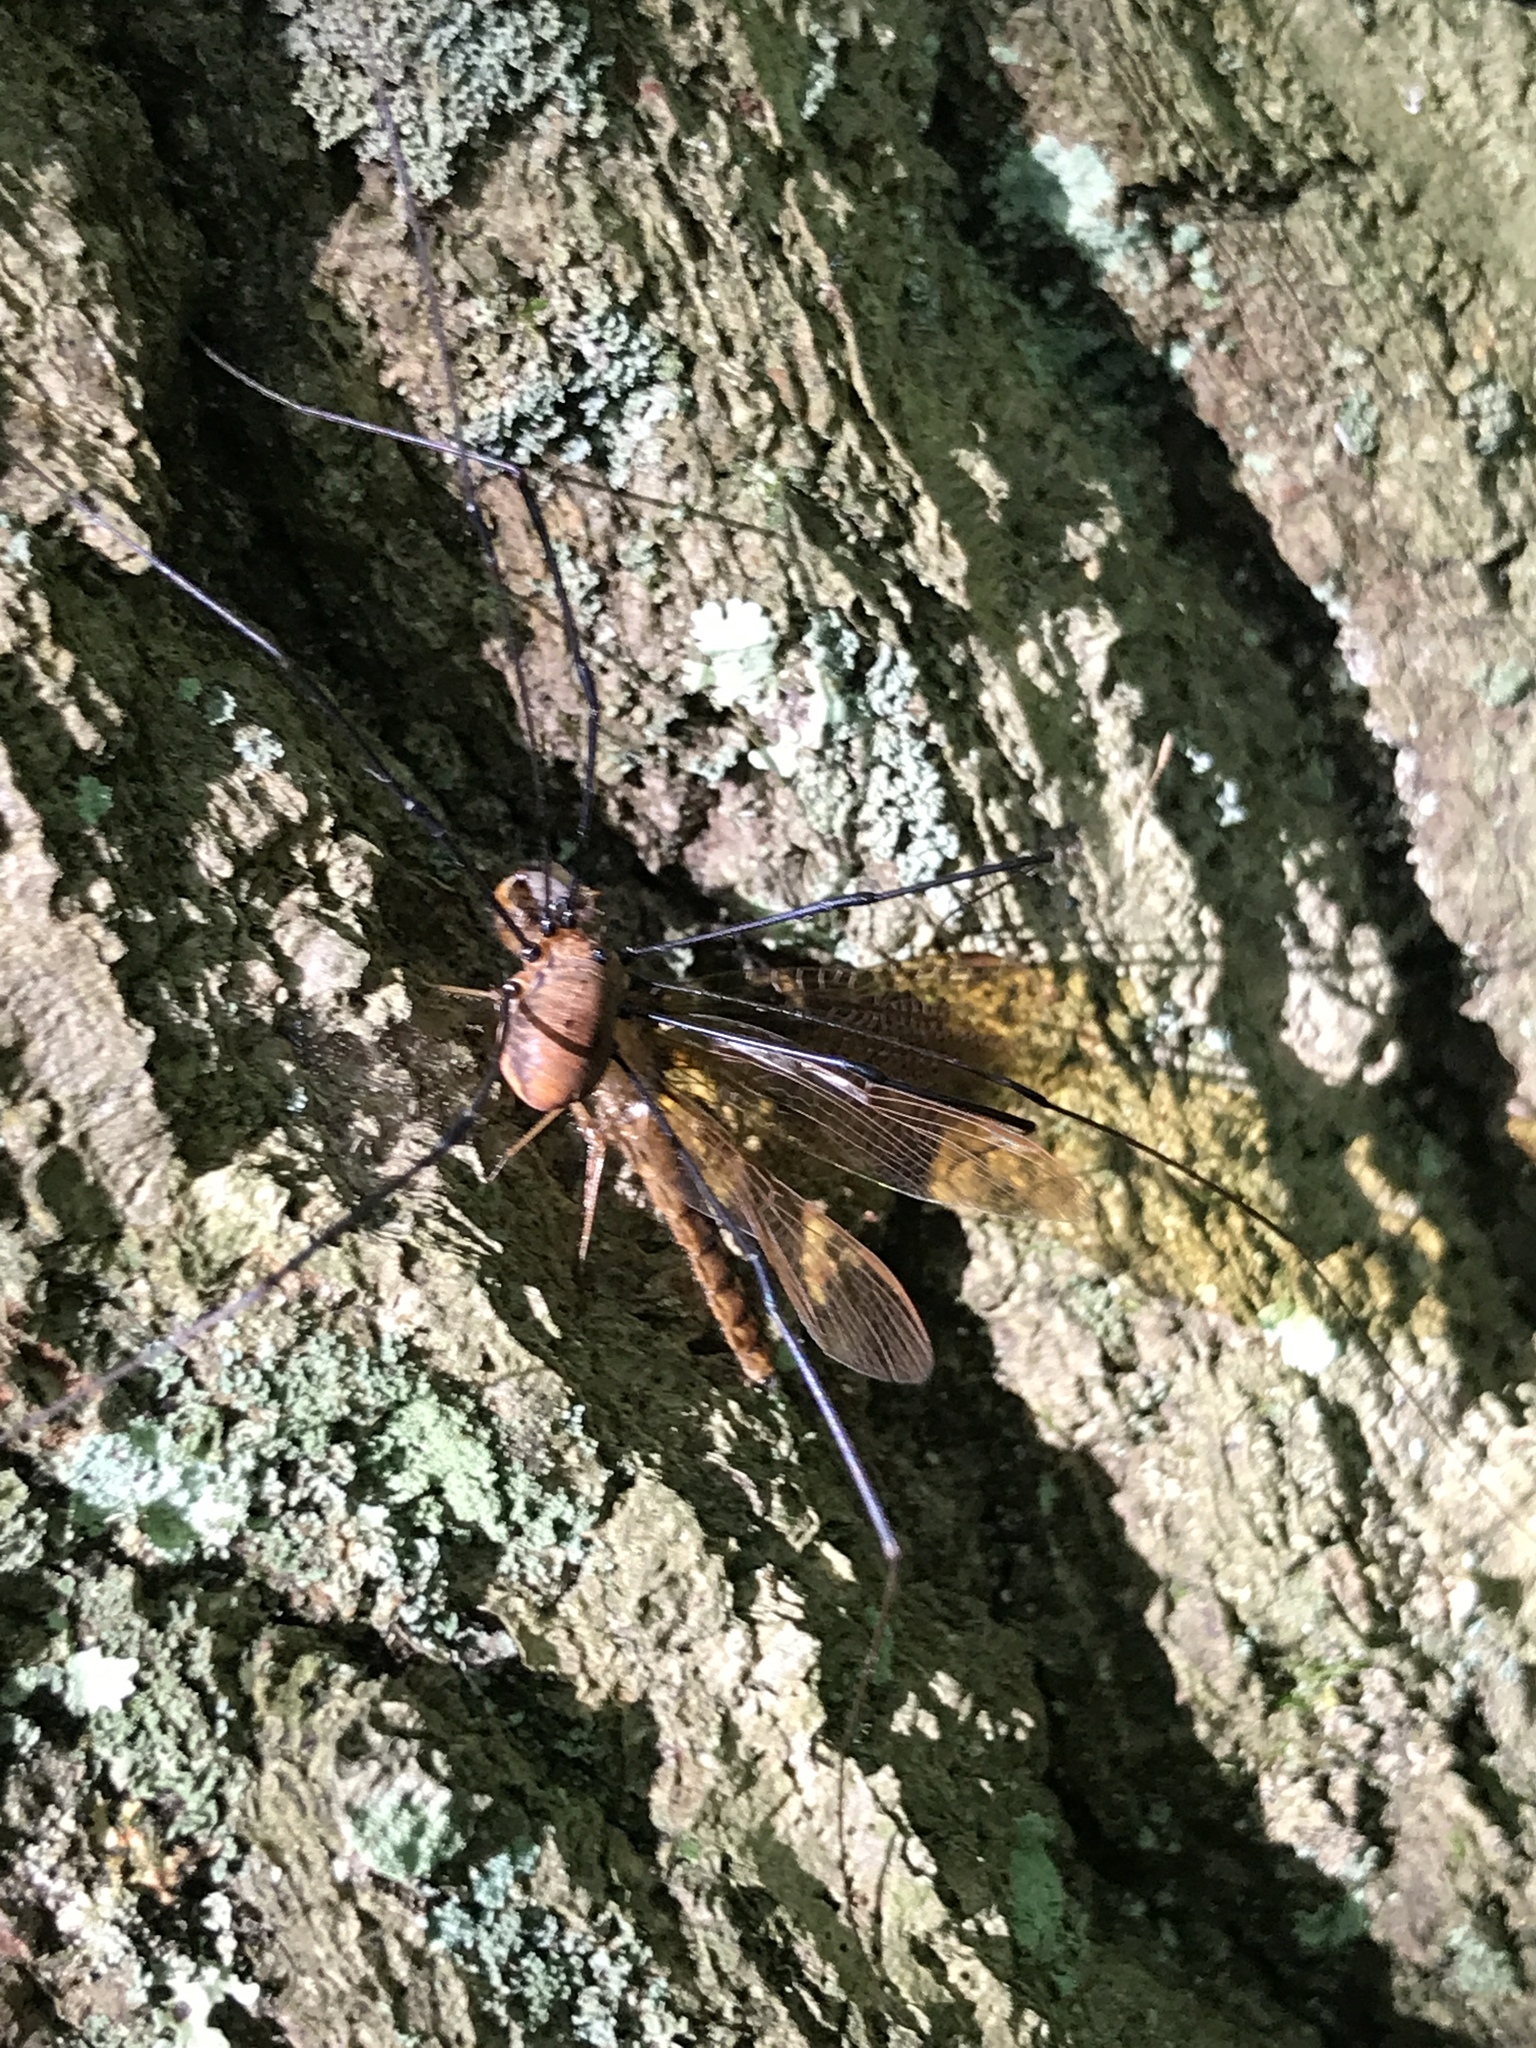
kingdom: Animalia
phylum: Arthropoda
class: Insecta
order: Odonata
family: Libellulidae
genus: Perithemis
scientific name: Perithemis tenera
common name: Eastern amberwing
